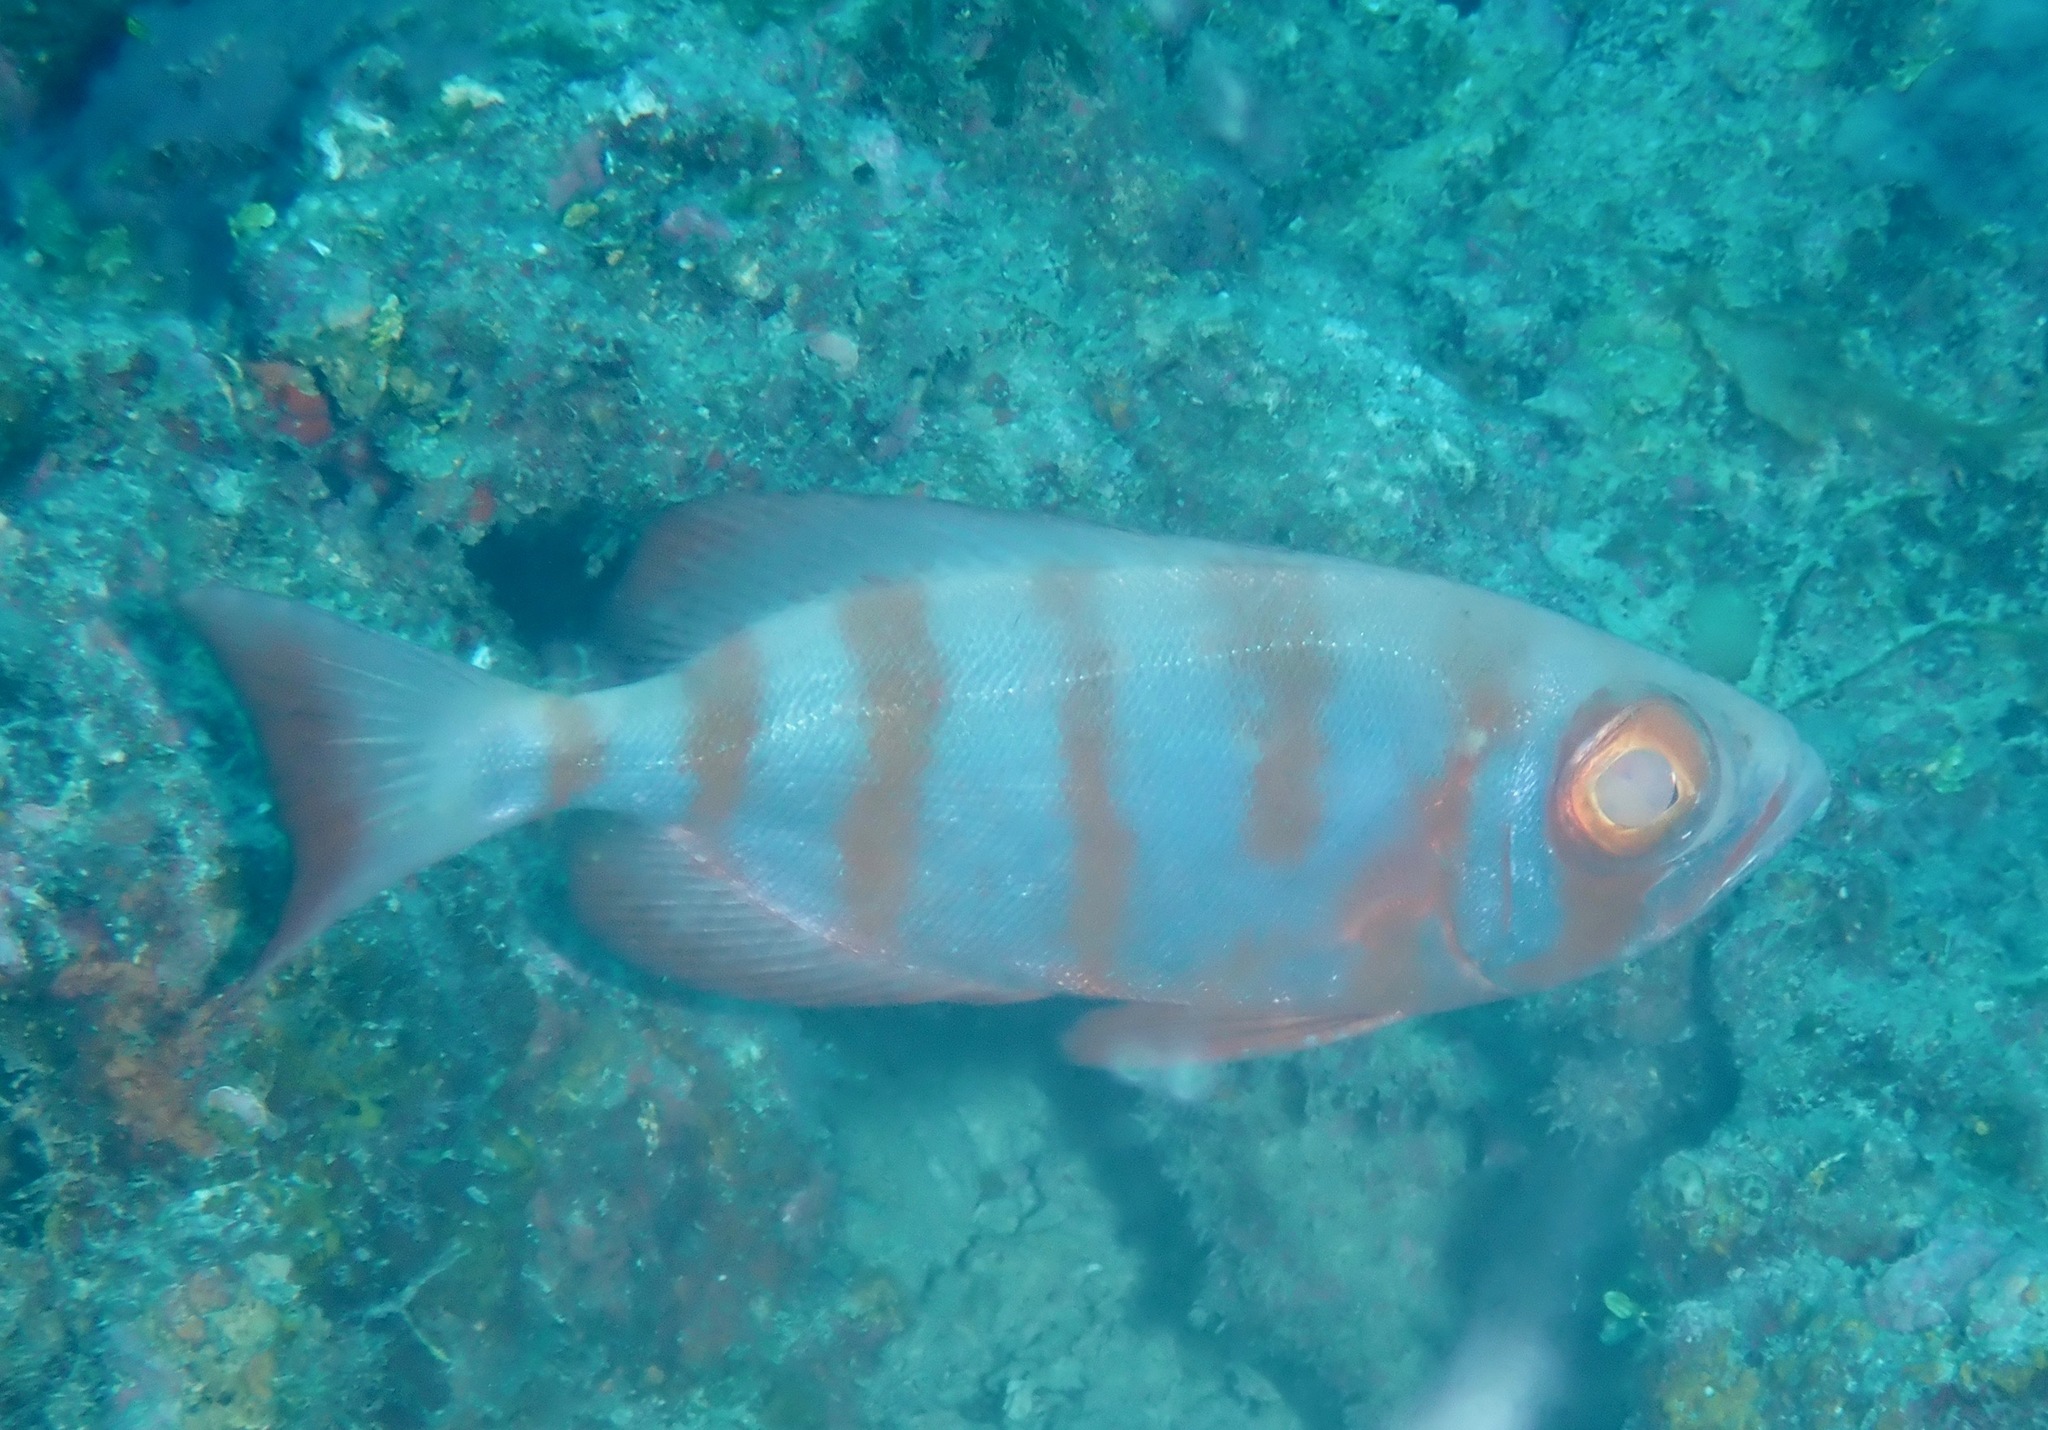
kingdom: Animalia
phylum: Chordata
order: Perciformes
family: Priacanthidae
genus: Priacanthus
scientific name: Priacanthus hamrur
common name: Moontail bullseye
